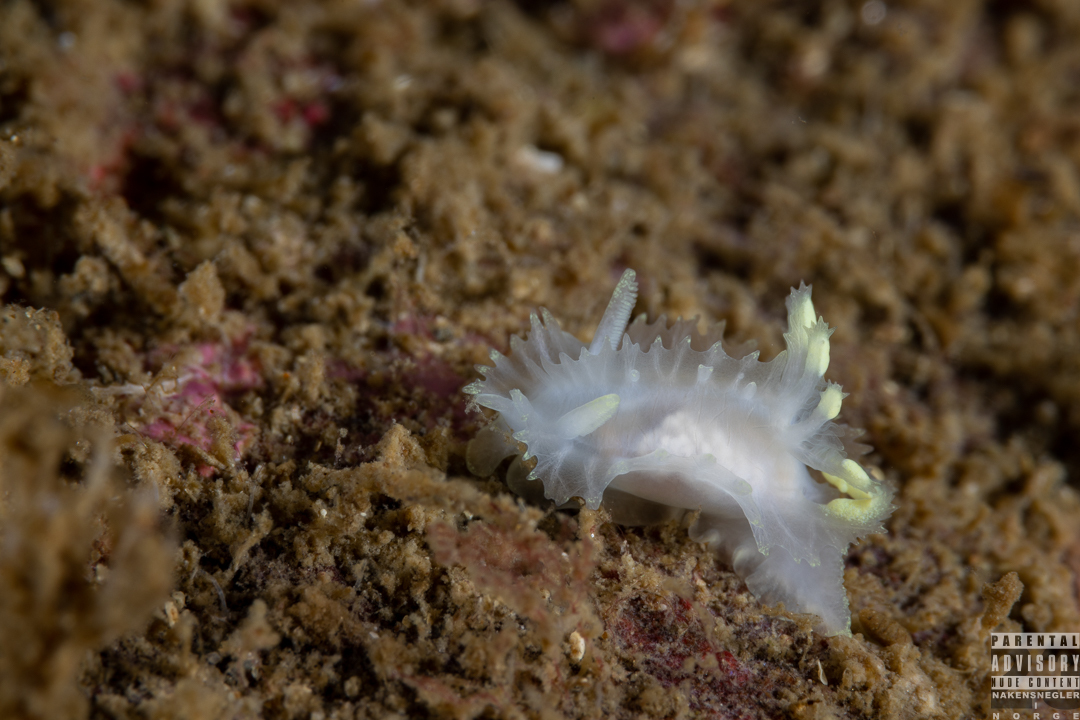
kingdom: Animalia
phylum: Mollusca
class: Gastropoda
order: Nudibranchia
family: Goniodorididae
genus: Lophodoris
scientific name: Lophodoris danielsseni
